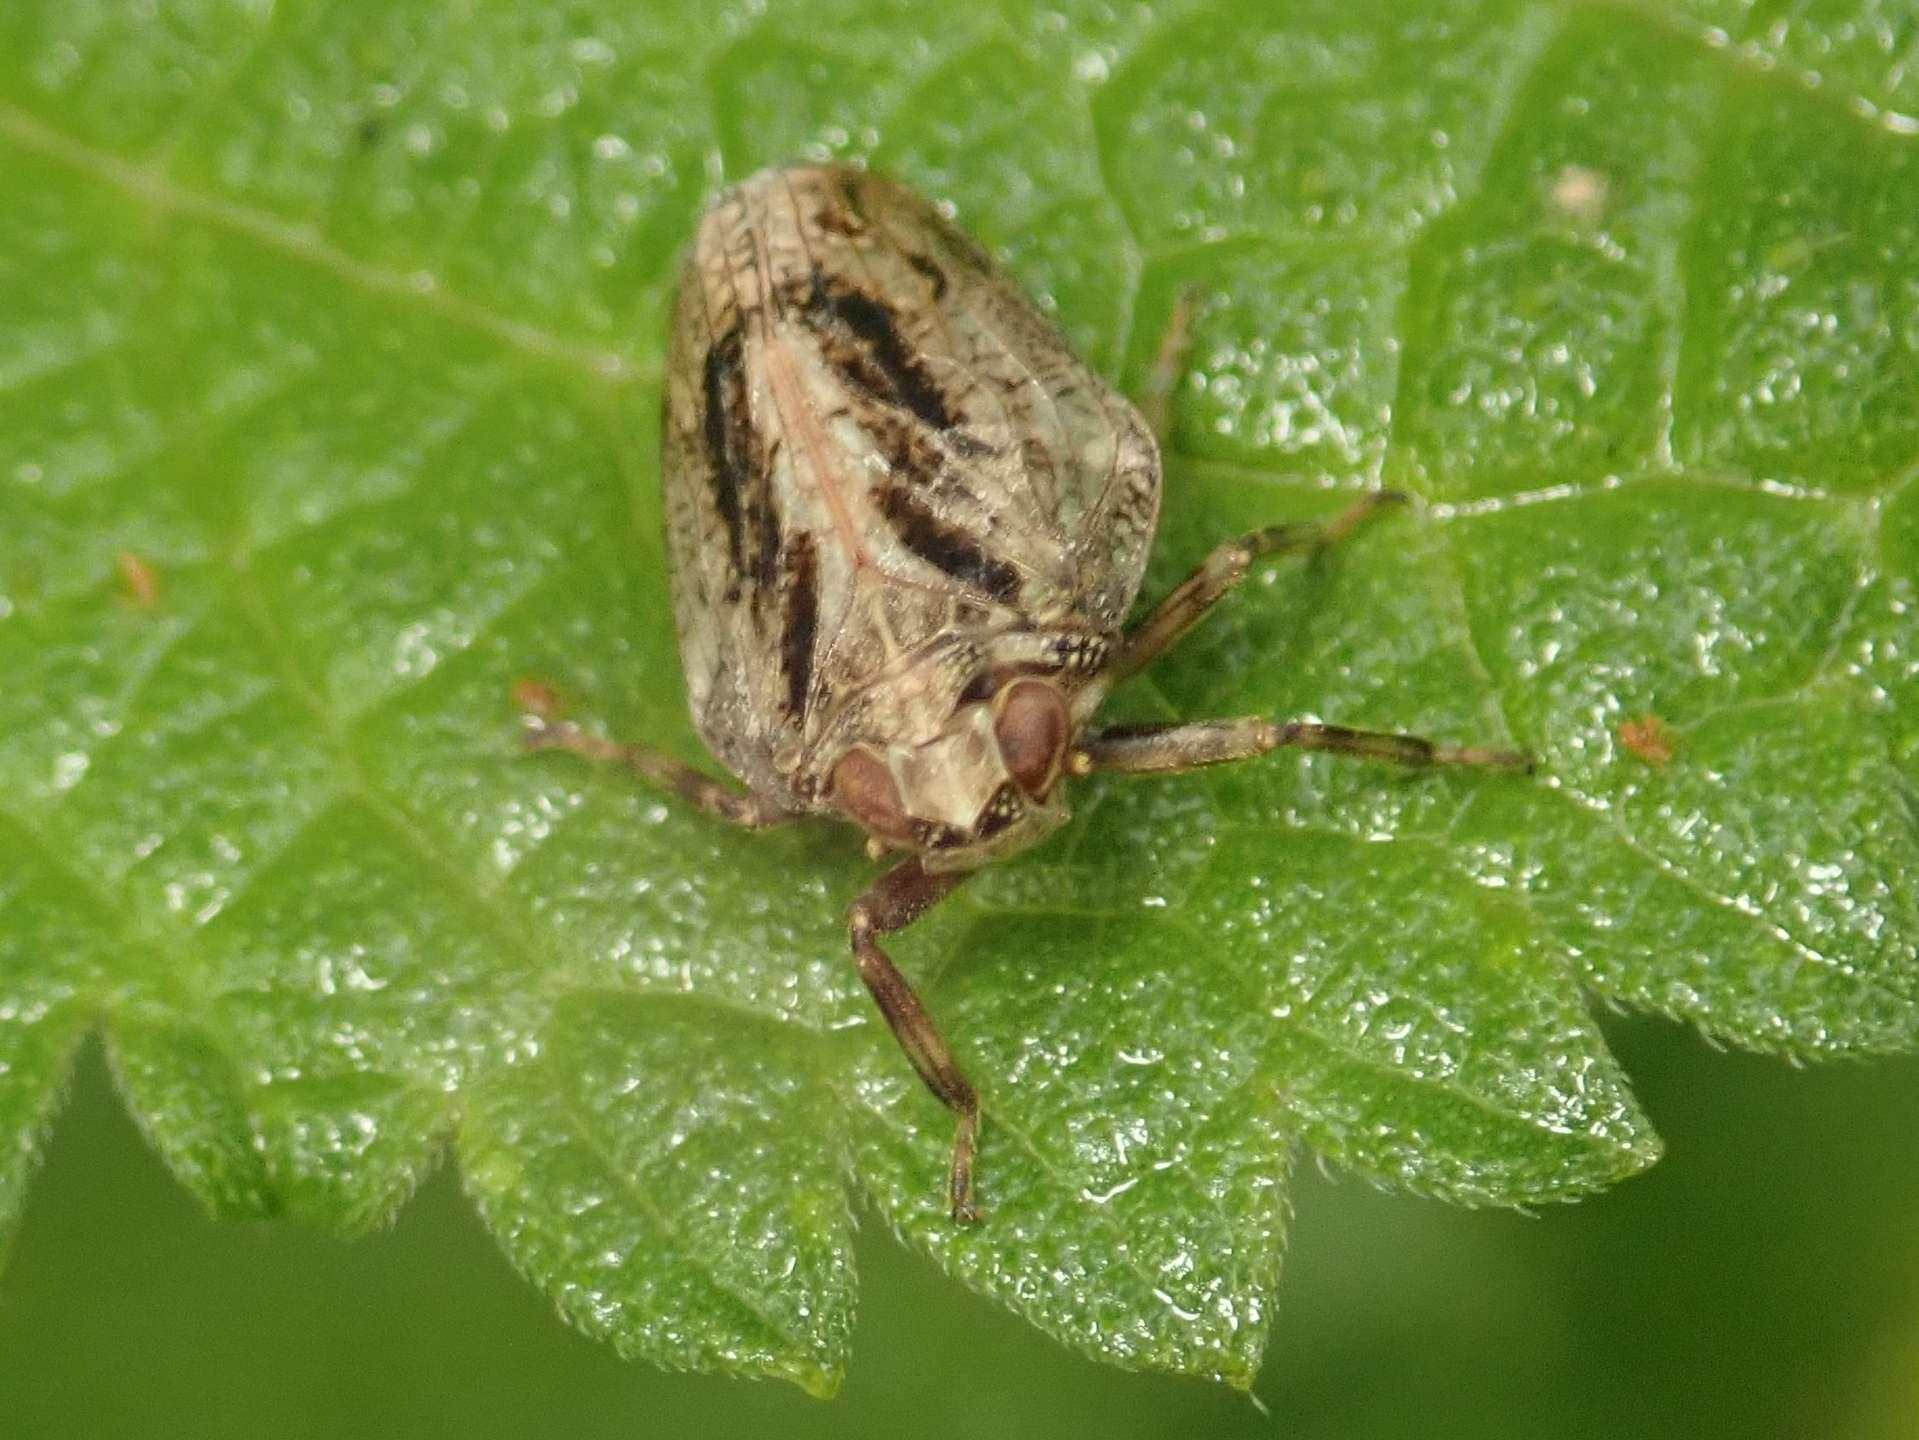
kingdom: Animalia
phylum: Arthropoda
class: Insecta
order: Hemiptera
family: Issidae
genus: Issus
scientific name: Issus coleoptratus
